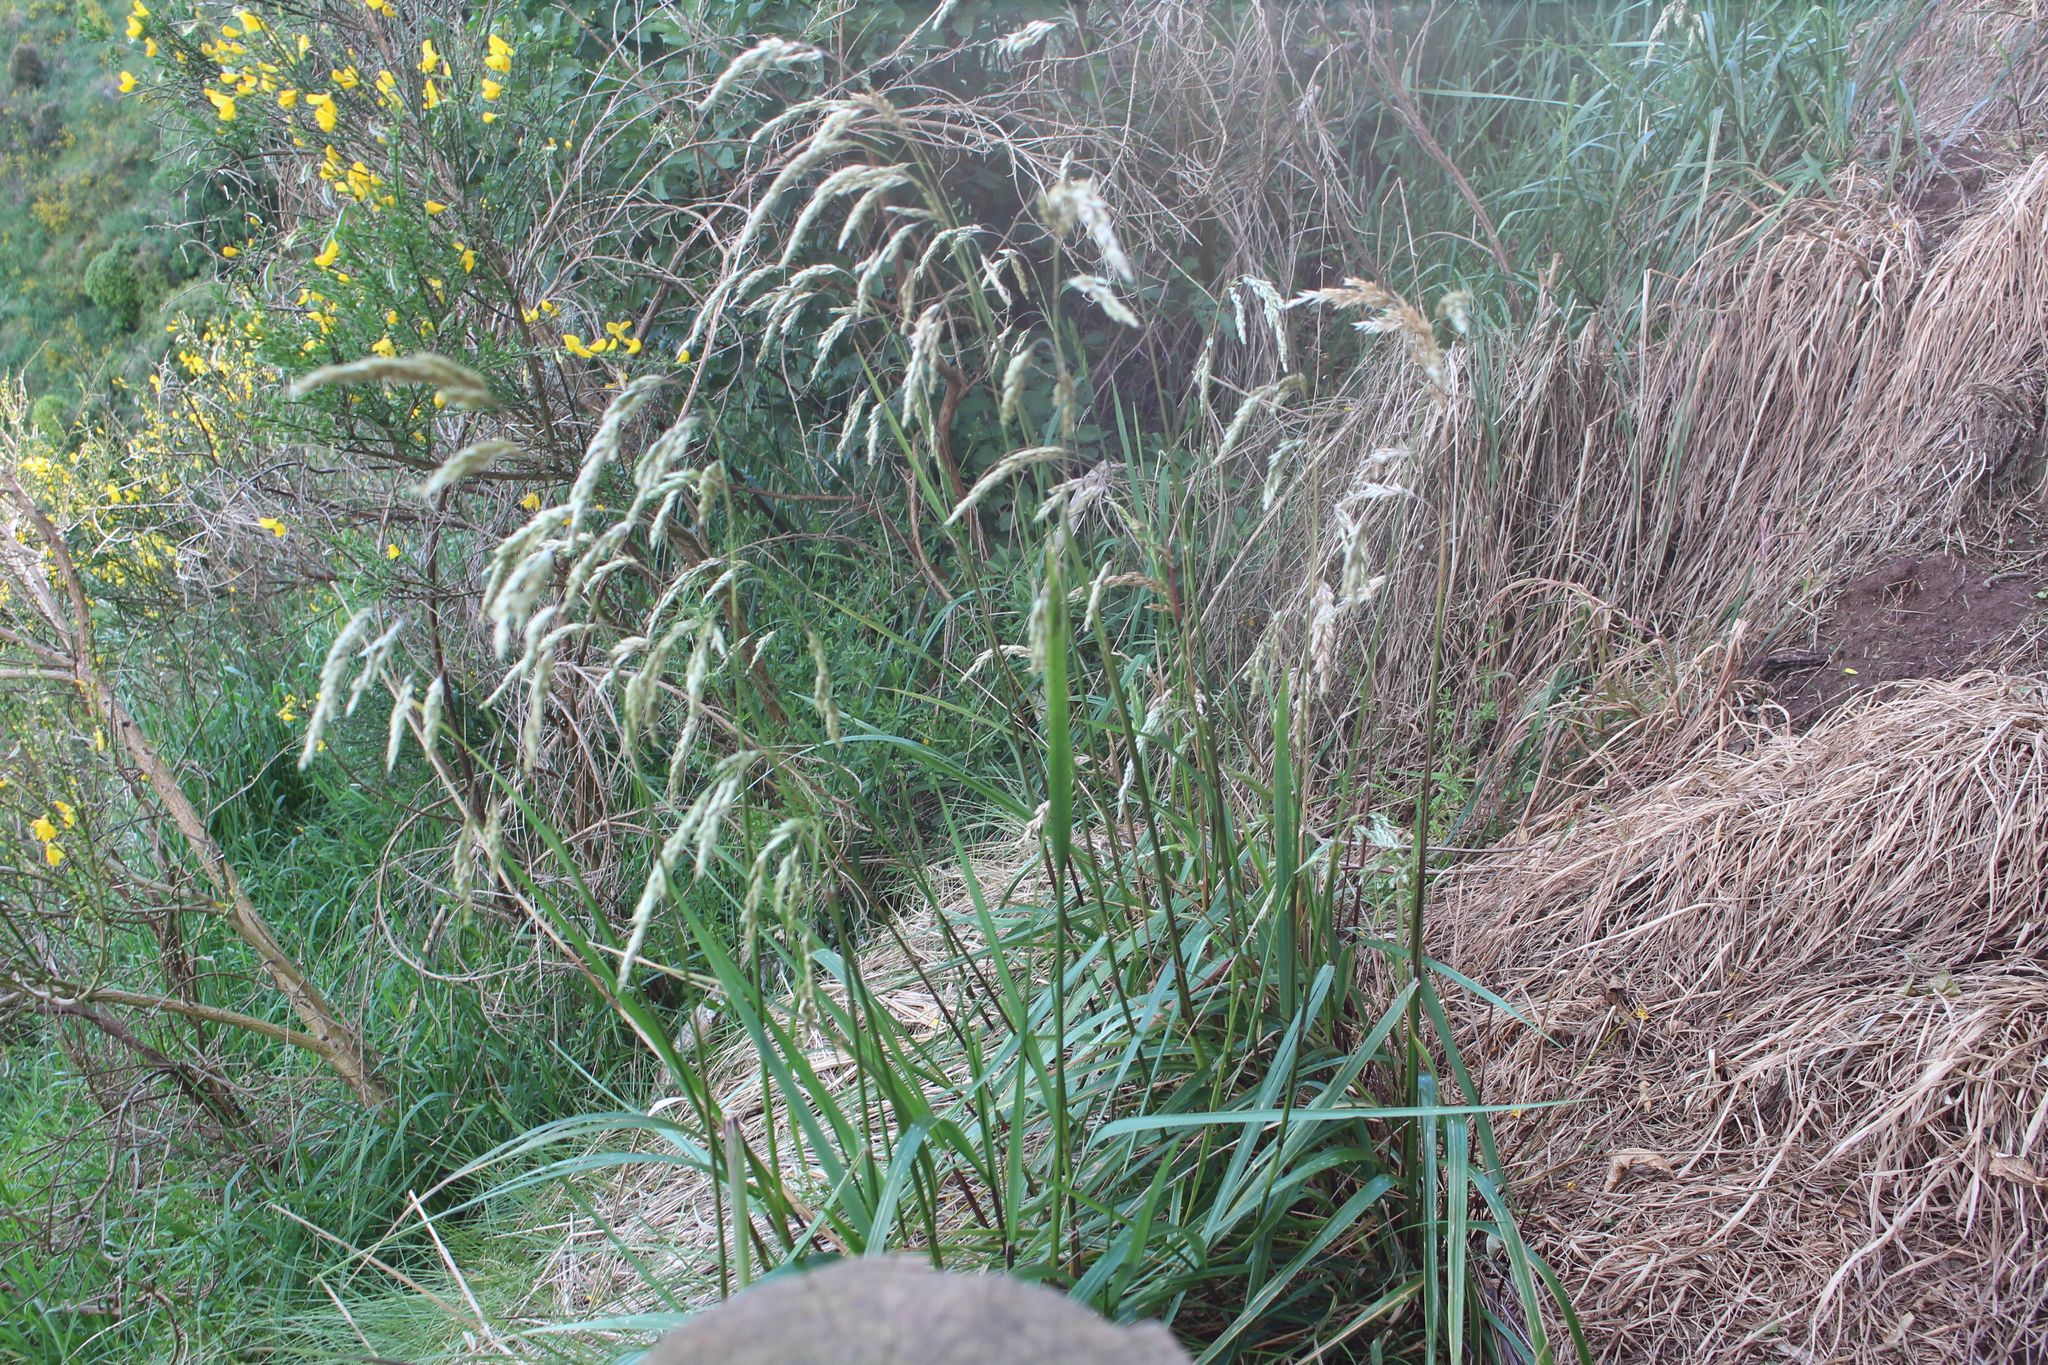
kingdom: Plantae
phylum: Tracheophyta
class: Liliopsida
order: Poales
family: Poaceae
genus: Anthoxanthum
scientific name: Anthoxanthum redolens
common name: Sweet holy grass
